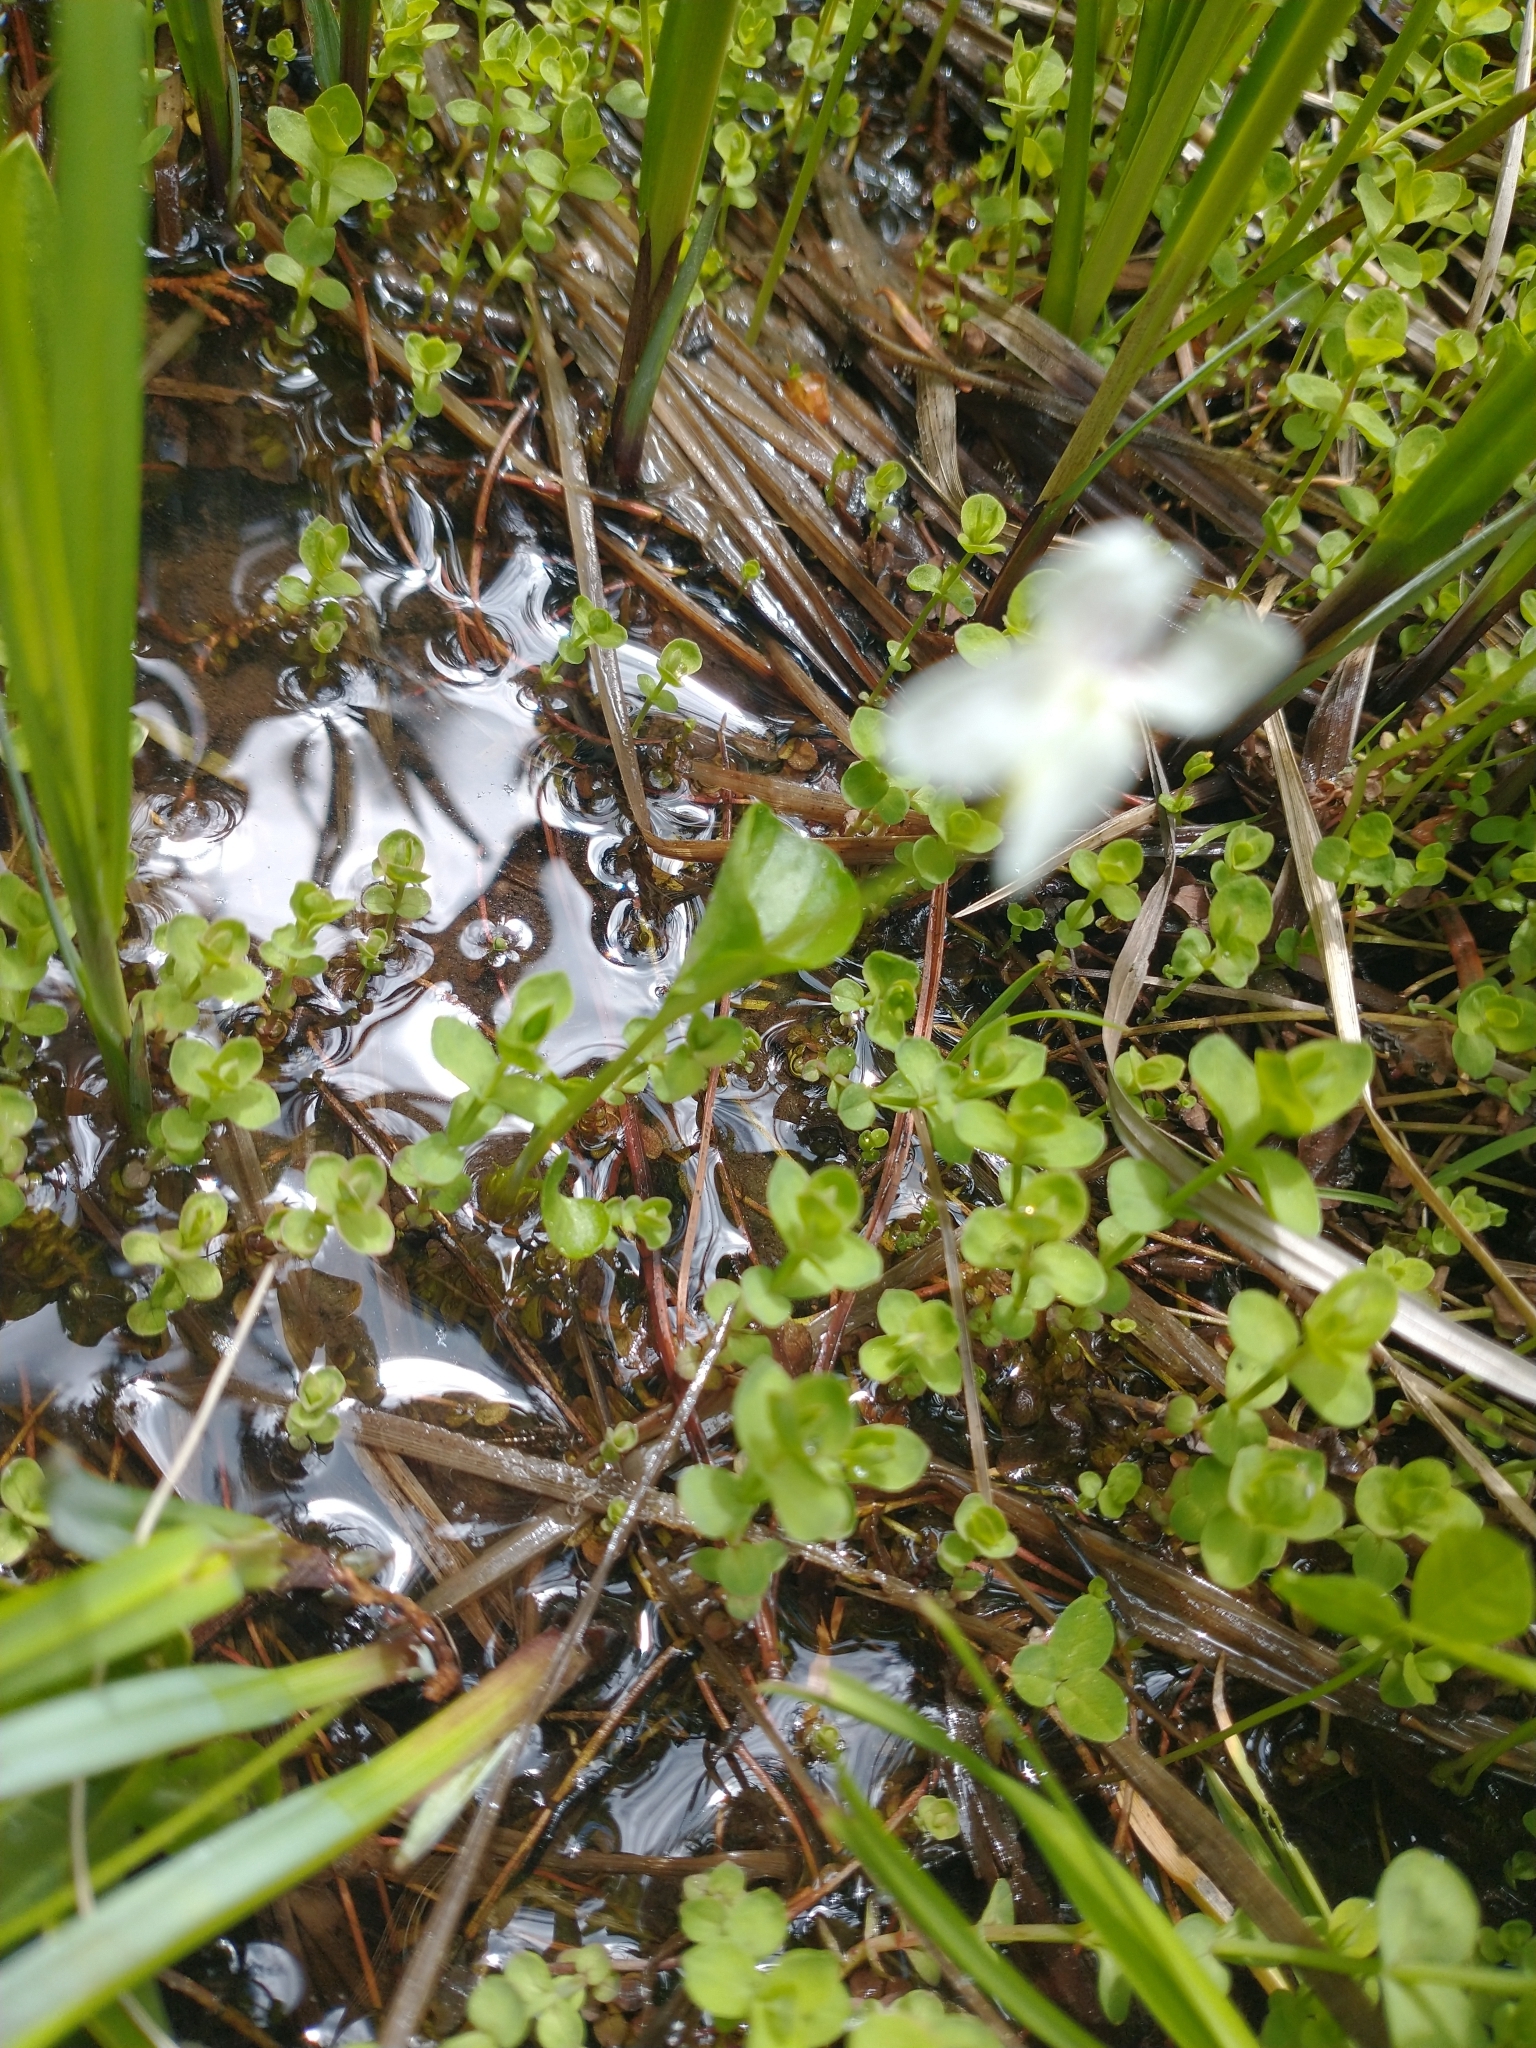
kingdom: Plantae
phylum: Tracheophyta
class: Magnoliopsida
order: Malpighiales
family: Violaceae
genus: Viola
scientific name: Viola macloskeyi
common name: Macloskey's violet
